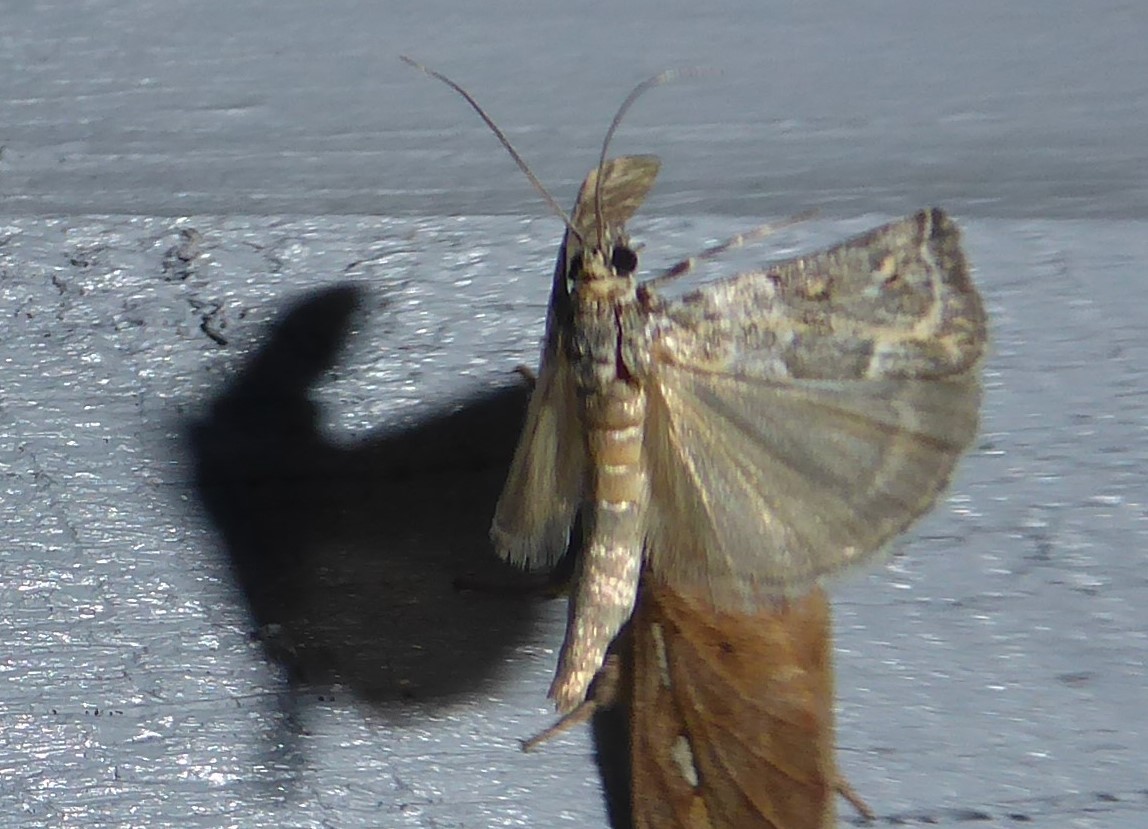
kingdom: Animalia
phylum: Arthropoda
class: Insecta
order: Lepidoptera
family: Crambidae
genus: Eudonia
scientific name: Eudonia diphtheralis
